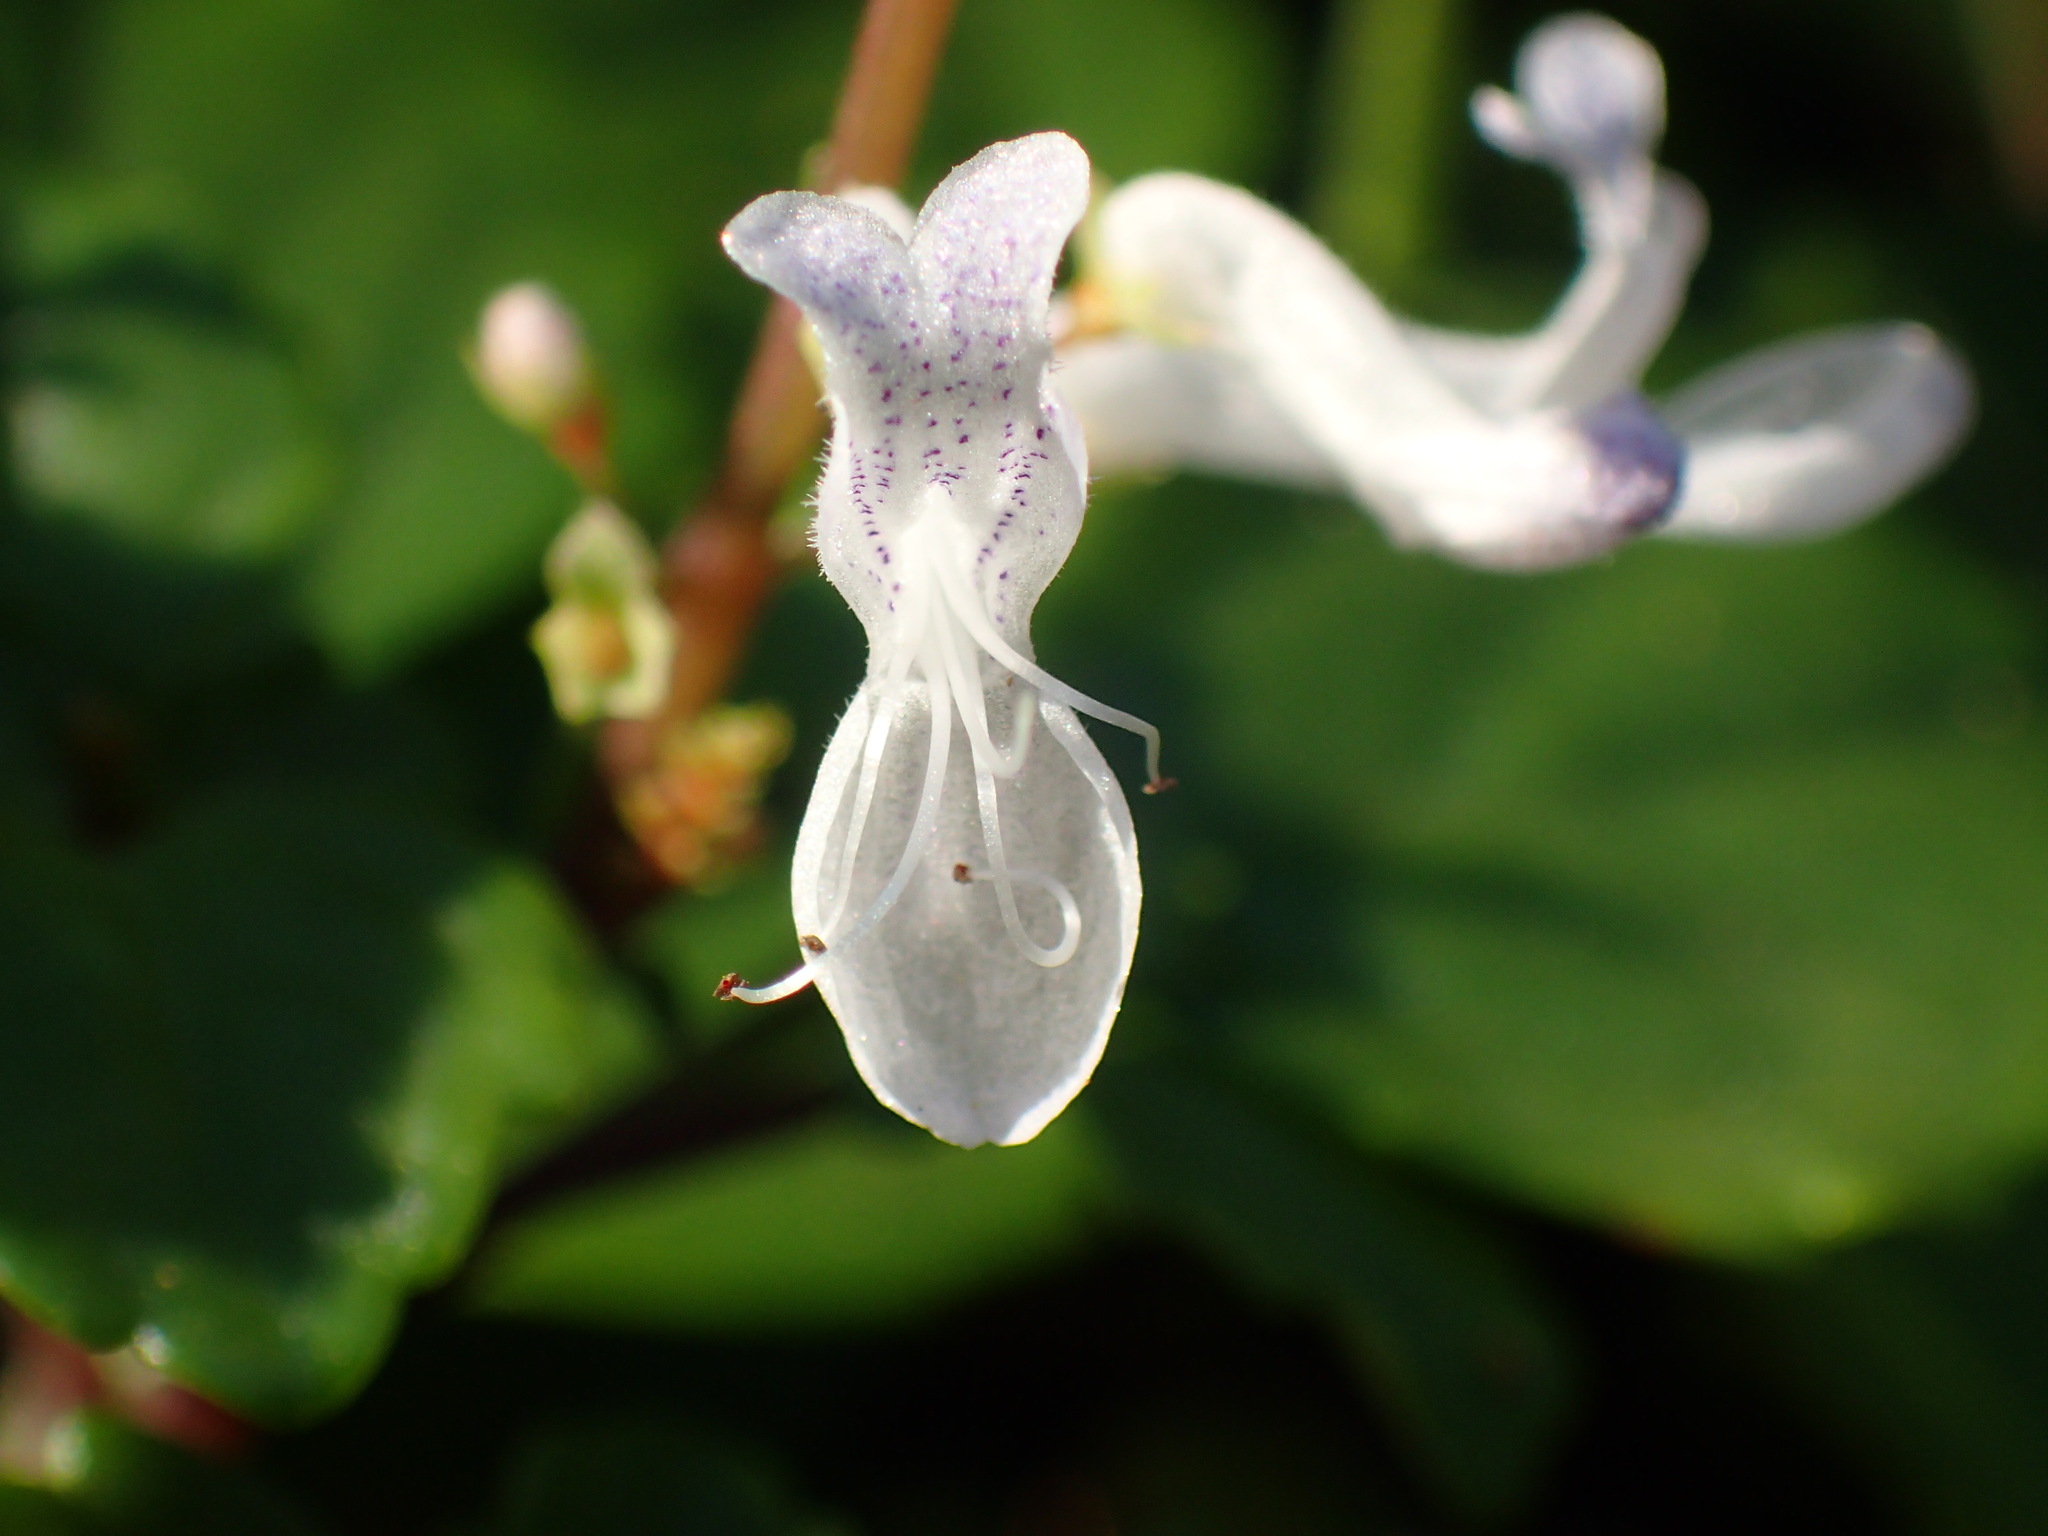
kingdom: Plantae
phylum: Tracheophyta
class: Magnoliopsida
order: Lamiales
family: Lamiaceae
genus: Plectranthus
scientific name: Plectranthus verticillatus
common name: Whorled plectranthus
